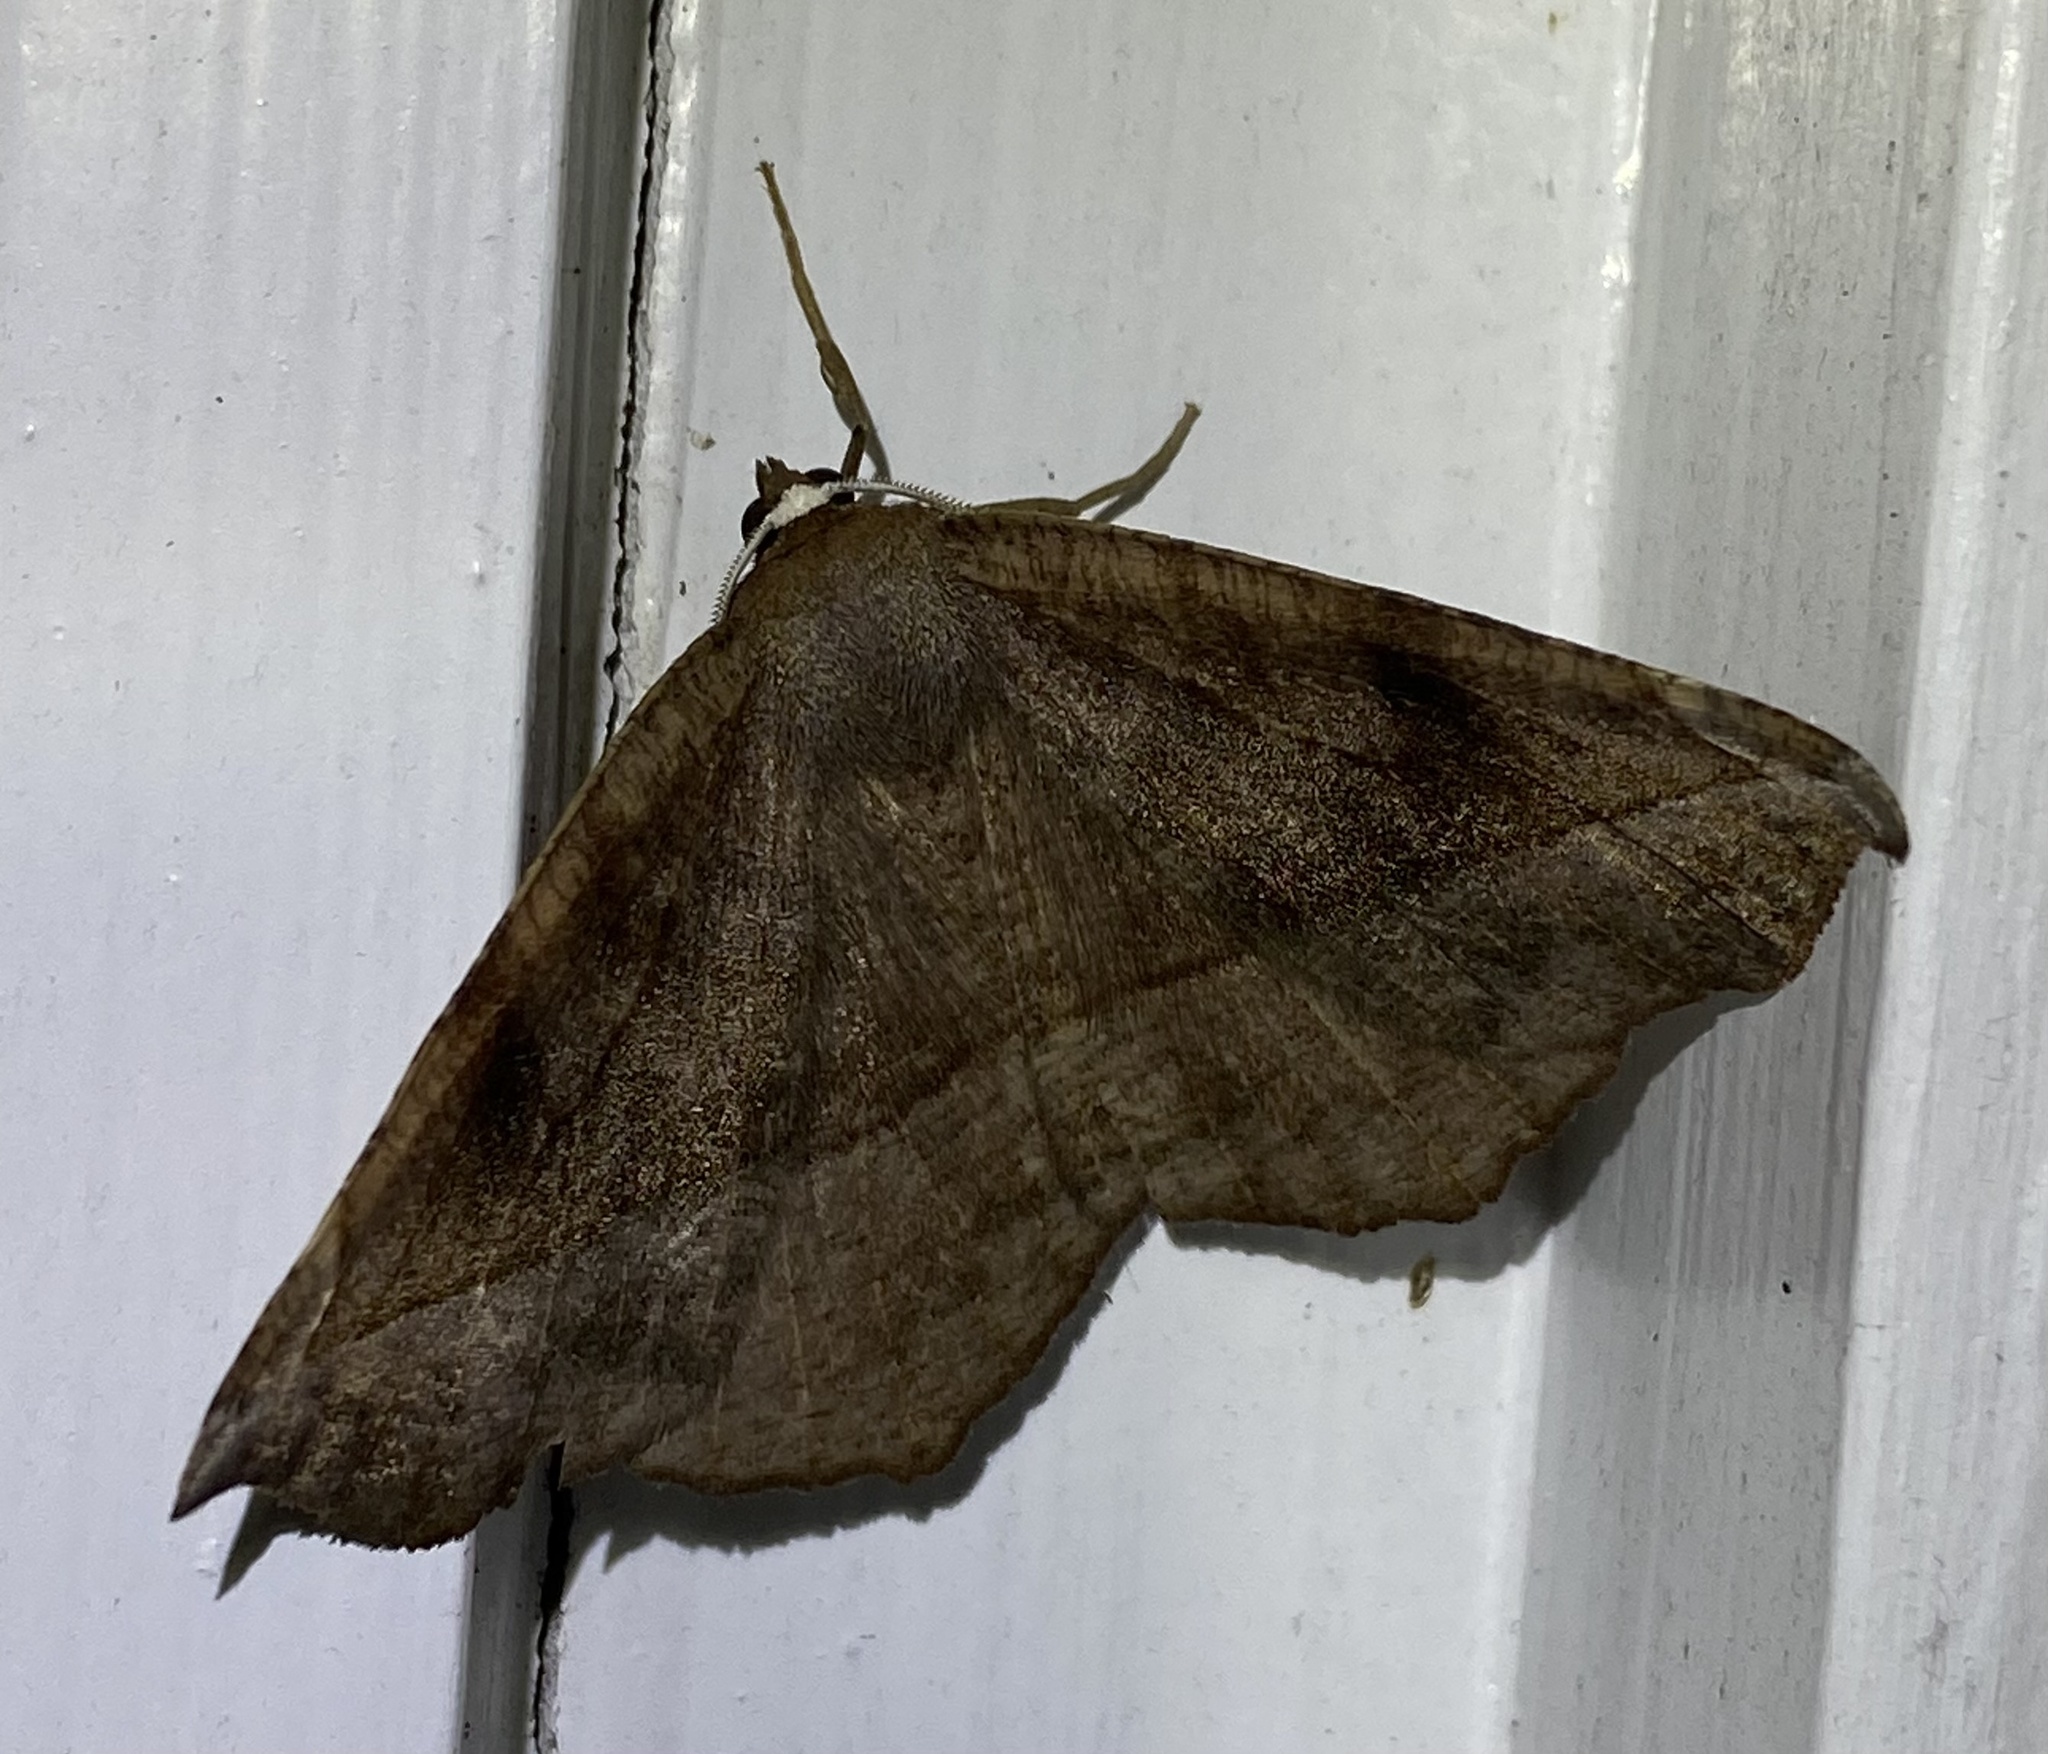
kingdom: Animalia
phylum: Arthropoda
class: Insecta
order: Lepidoptera
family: Geometridae
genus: Eutrapela
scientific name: Eutrapela clemataria
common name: Curved-toothed geometer
